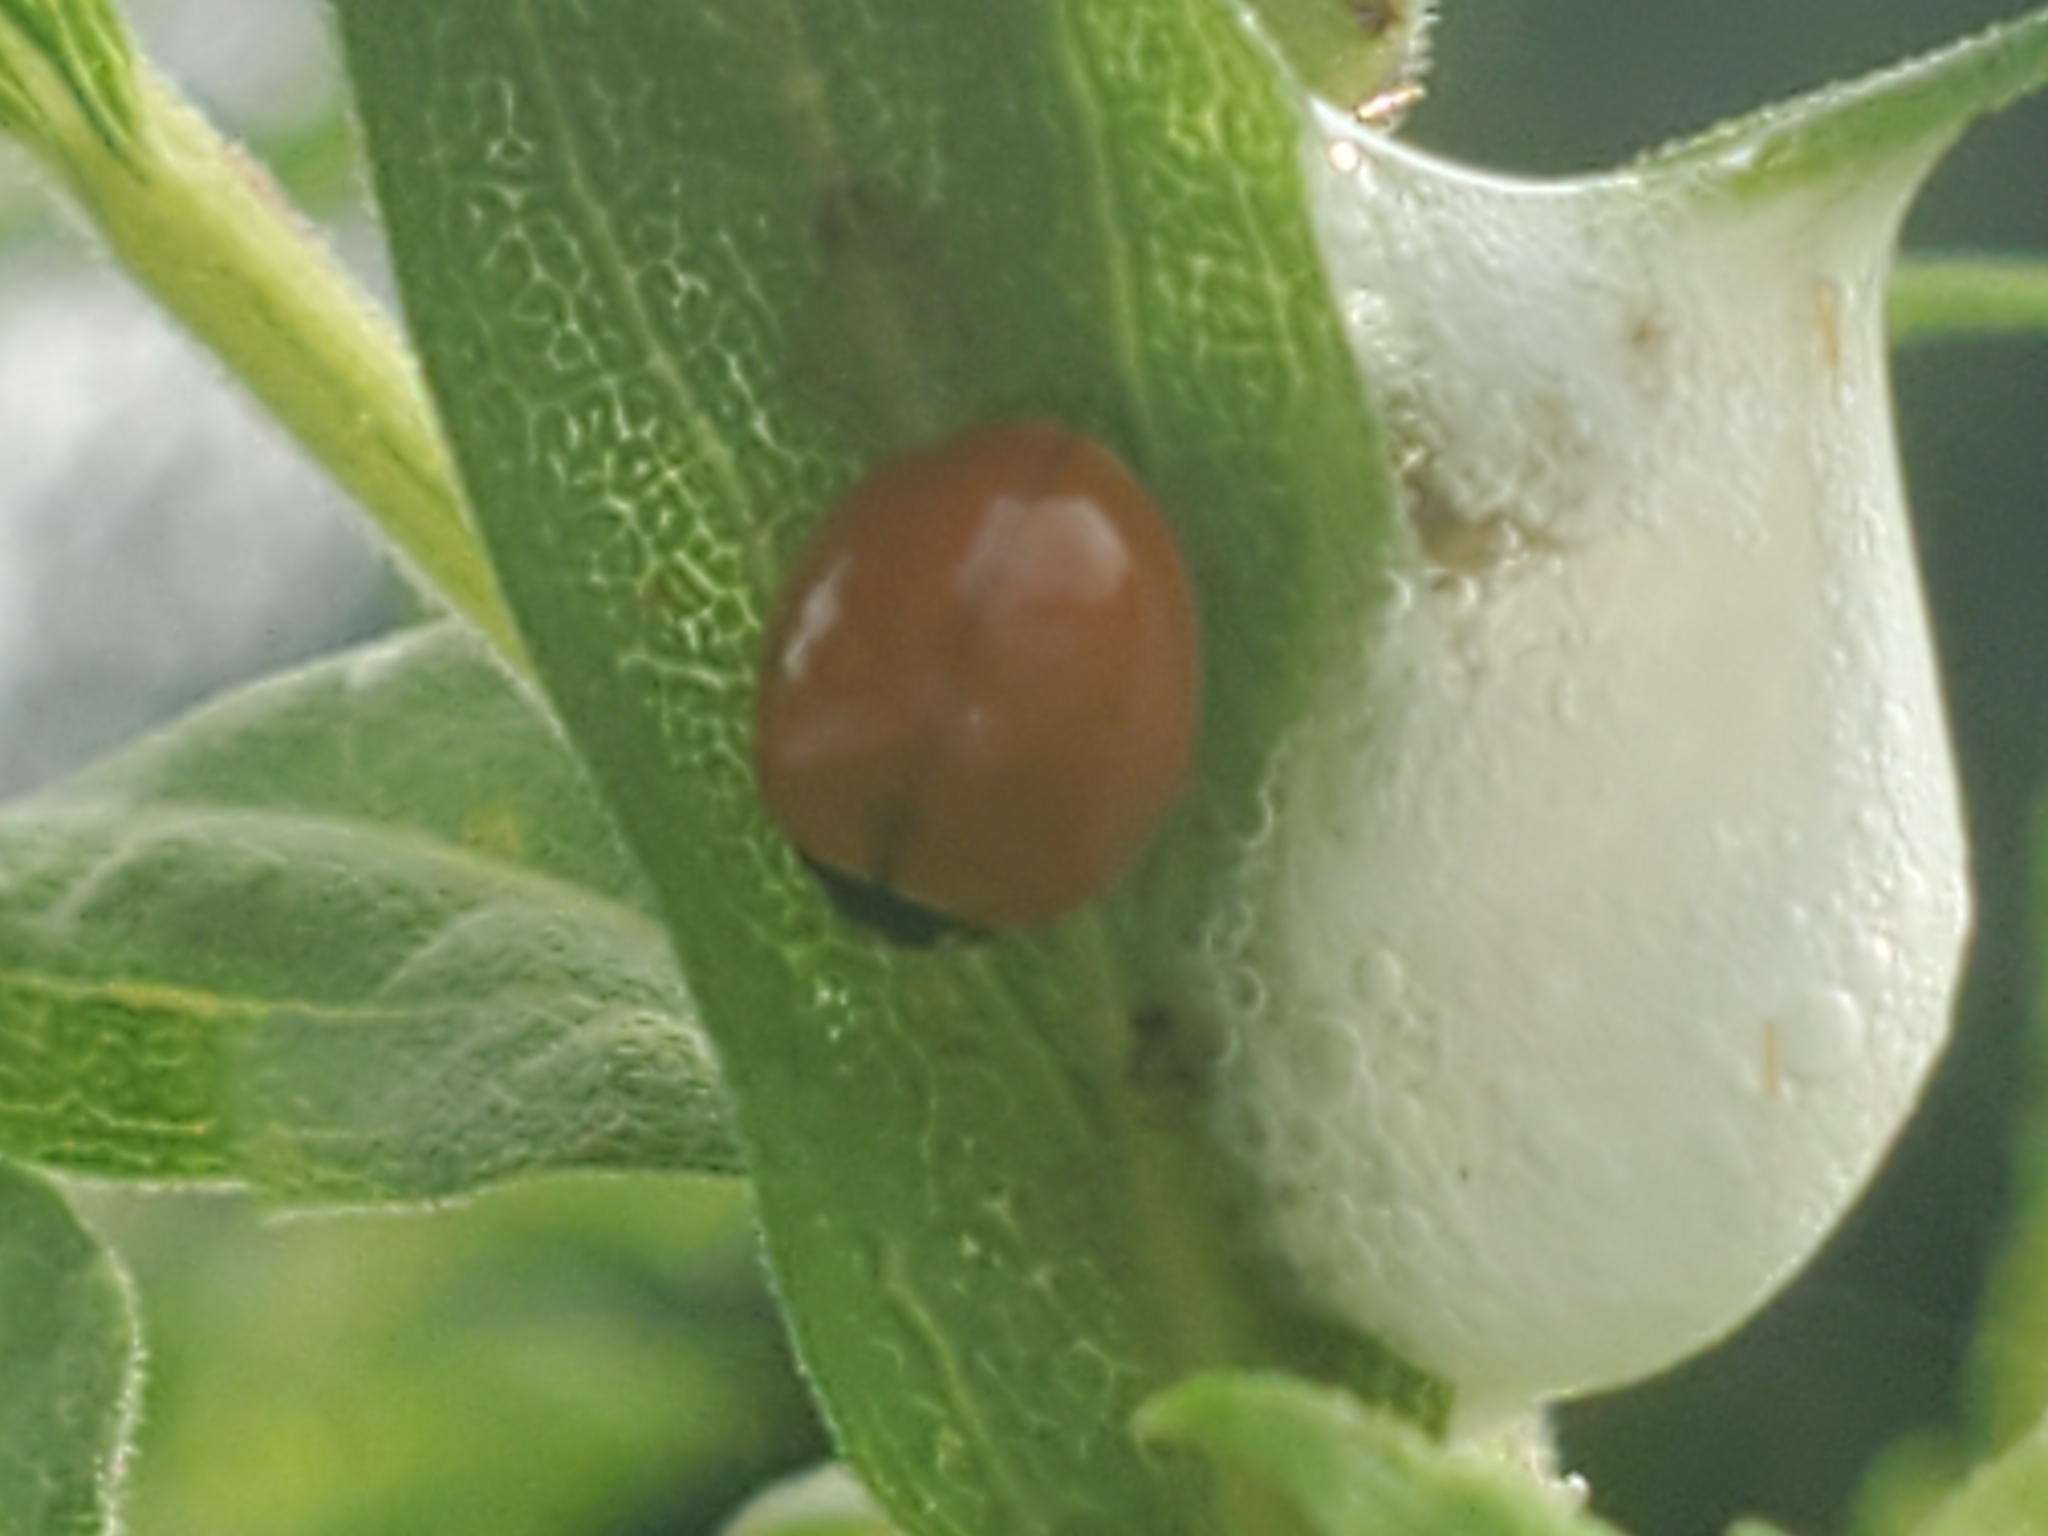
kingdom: Animalia
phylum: Arthropoda
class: Insecta
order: Coleoptera
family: Coccinellidae
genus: Cycloneda
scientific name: Cycloneda munda
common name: Polished lady beetle
